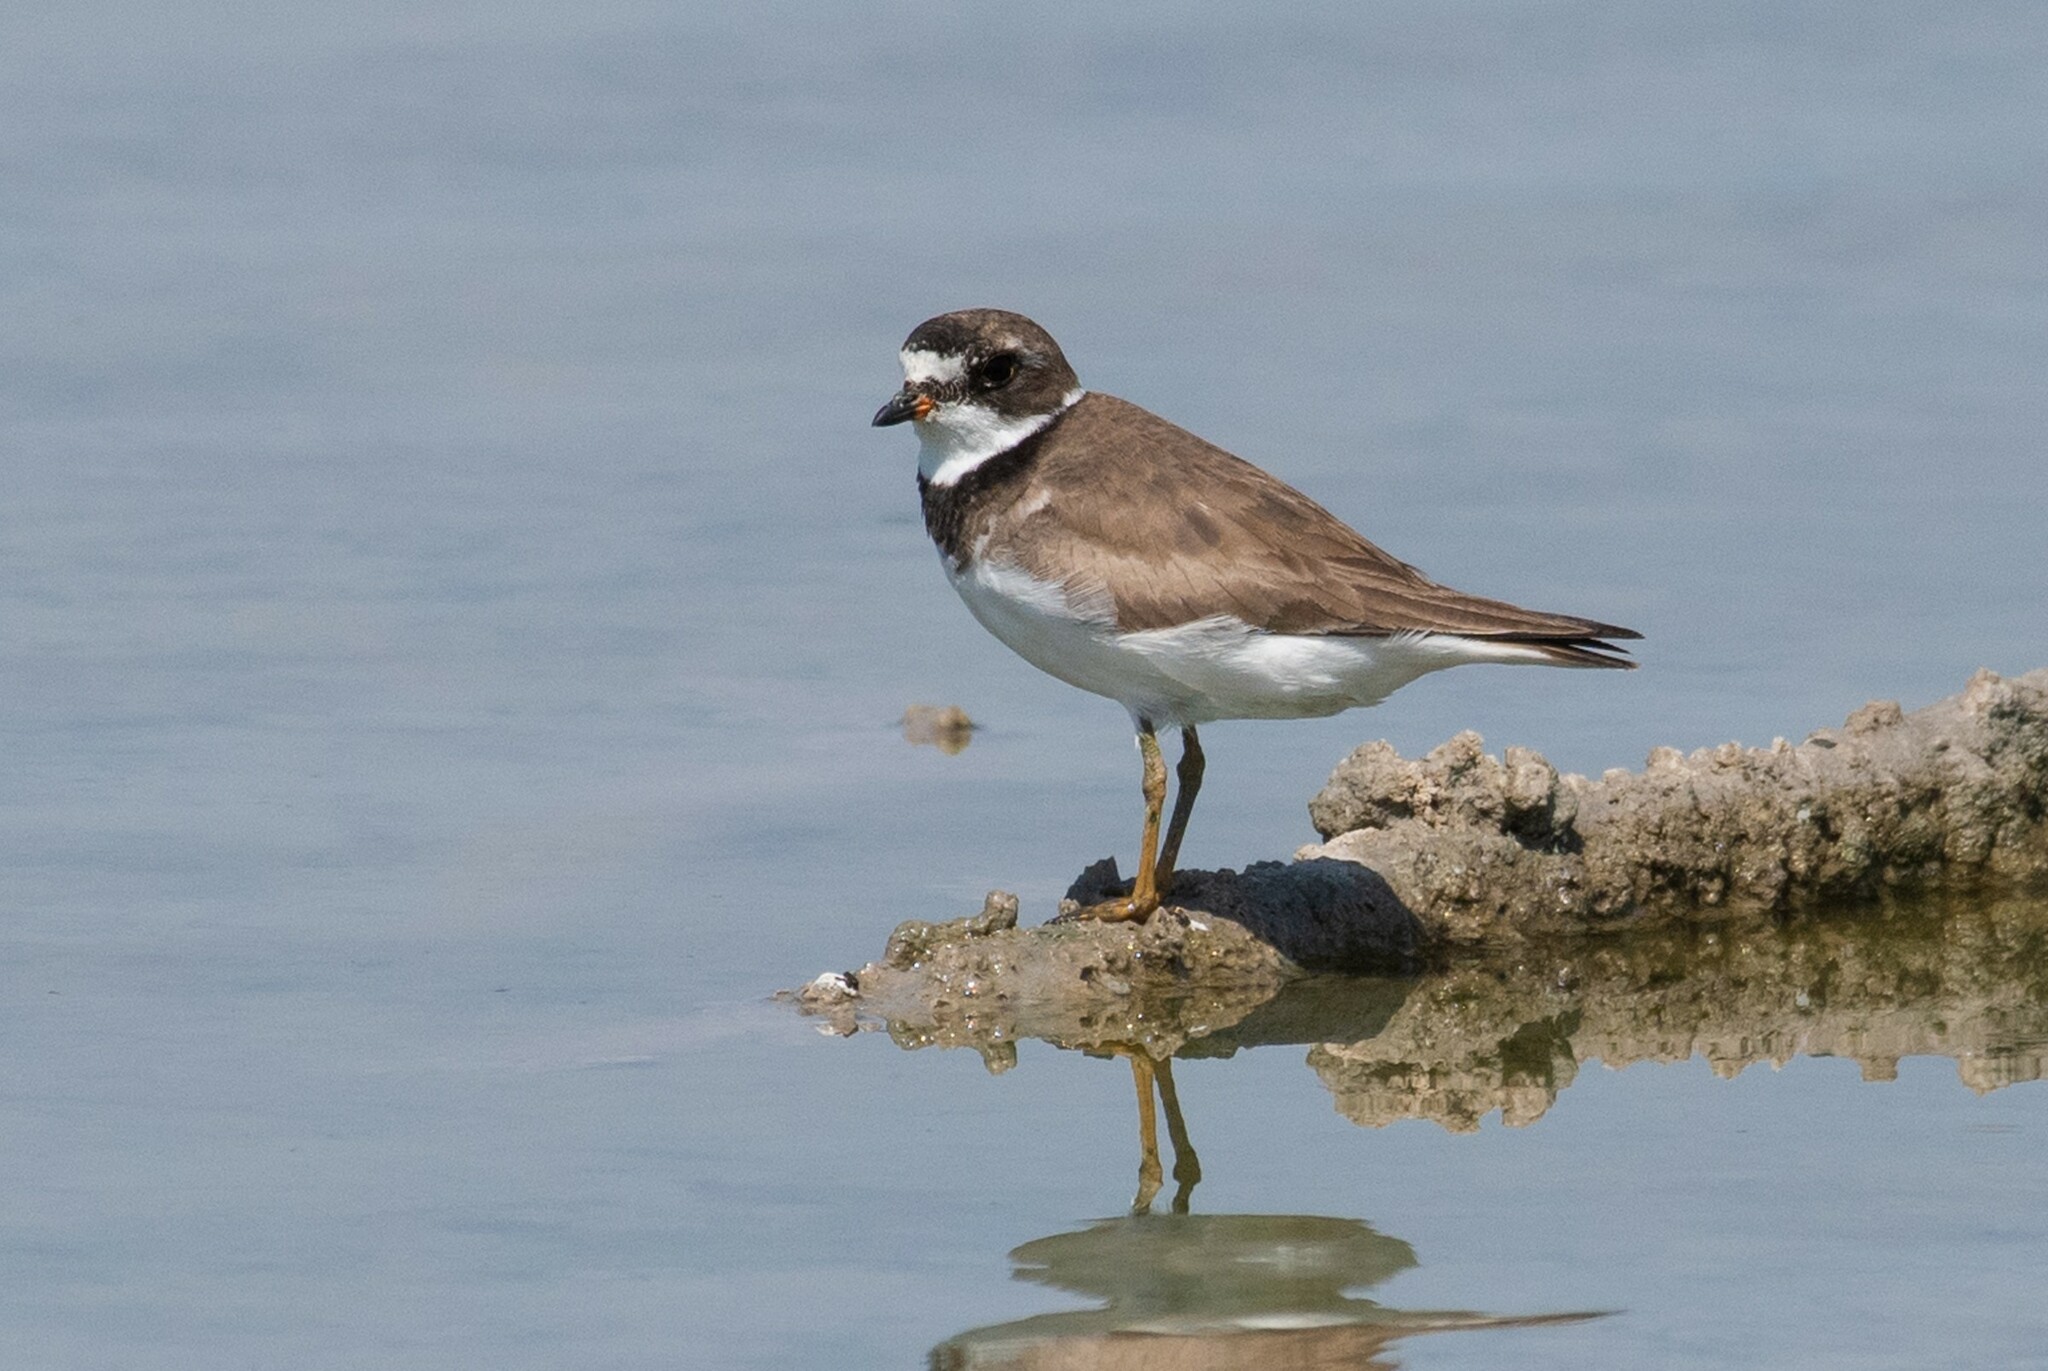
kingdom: Animalia
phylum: Chordata
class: Aves
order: Charadriiformes
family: Charadriidae
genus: Charadrius
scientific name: Charadrius semipalmatus
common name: Semipalmated plover
